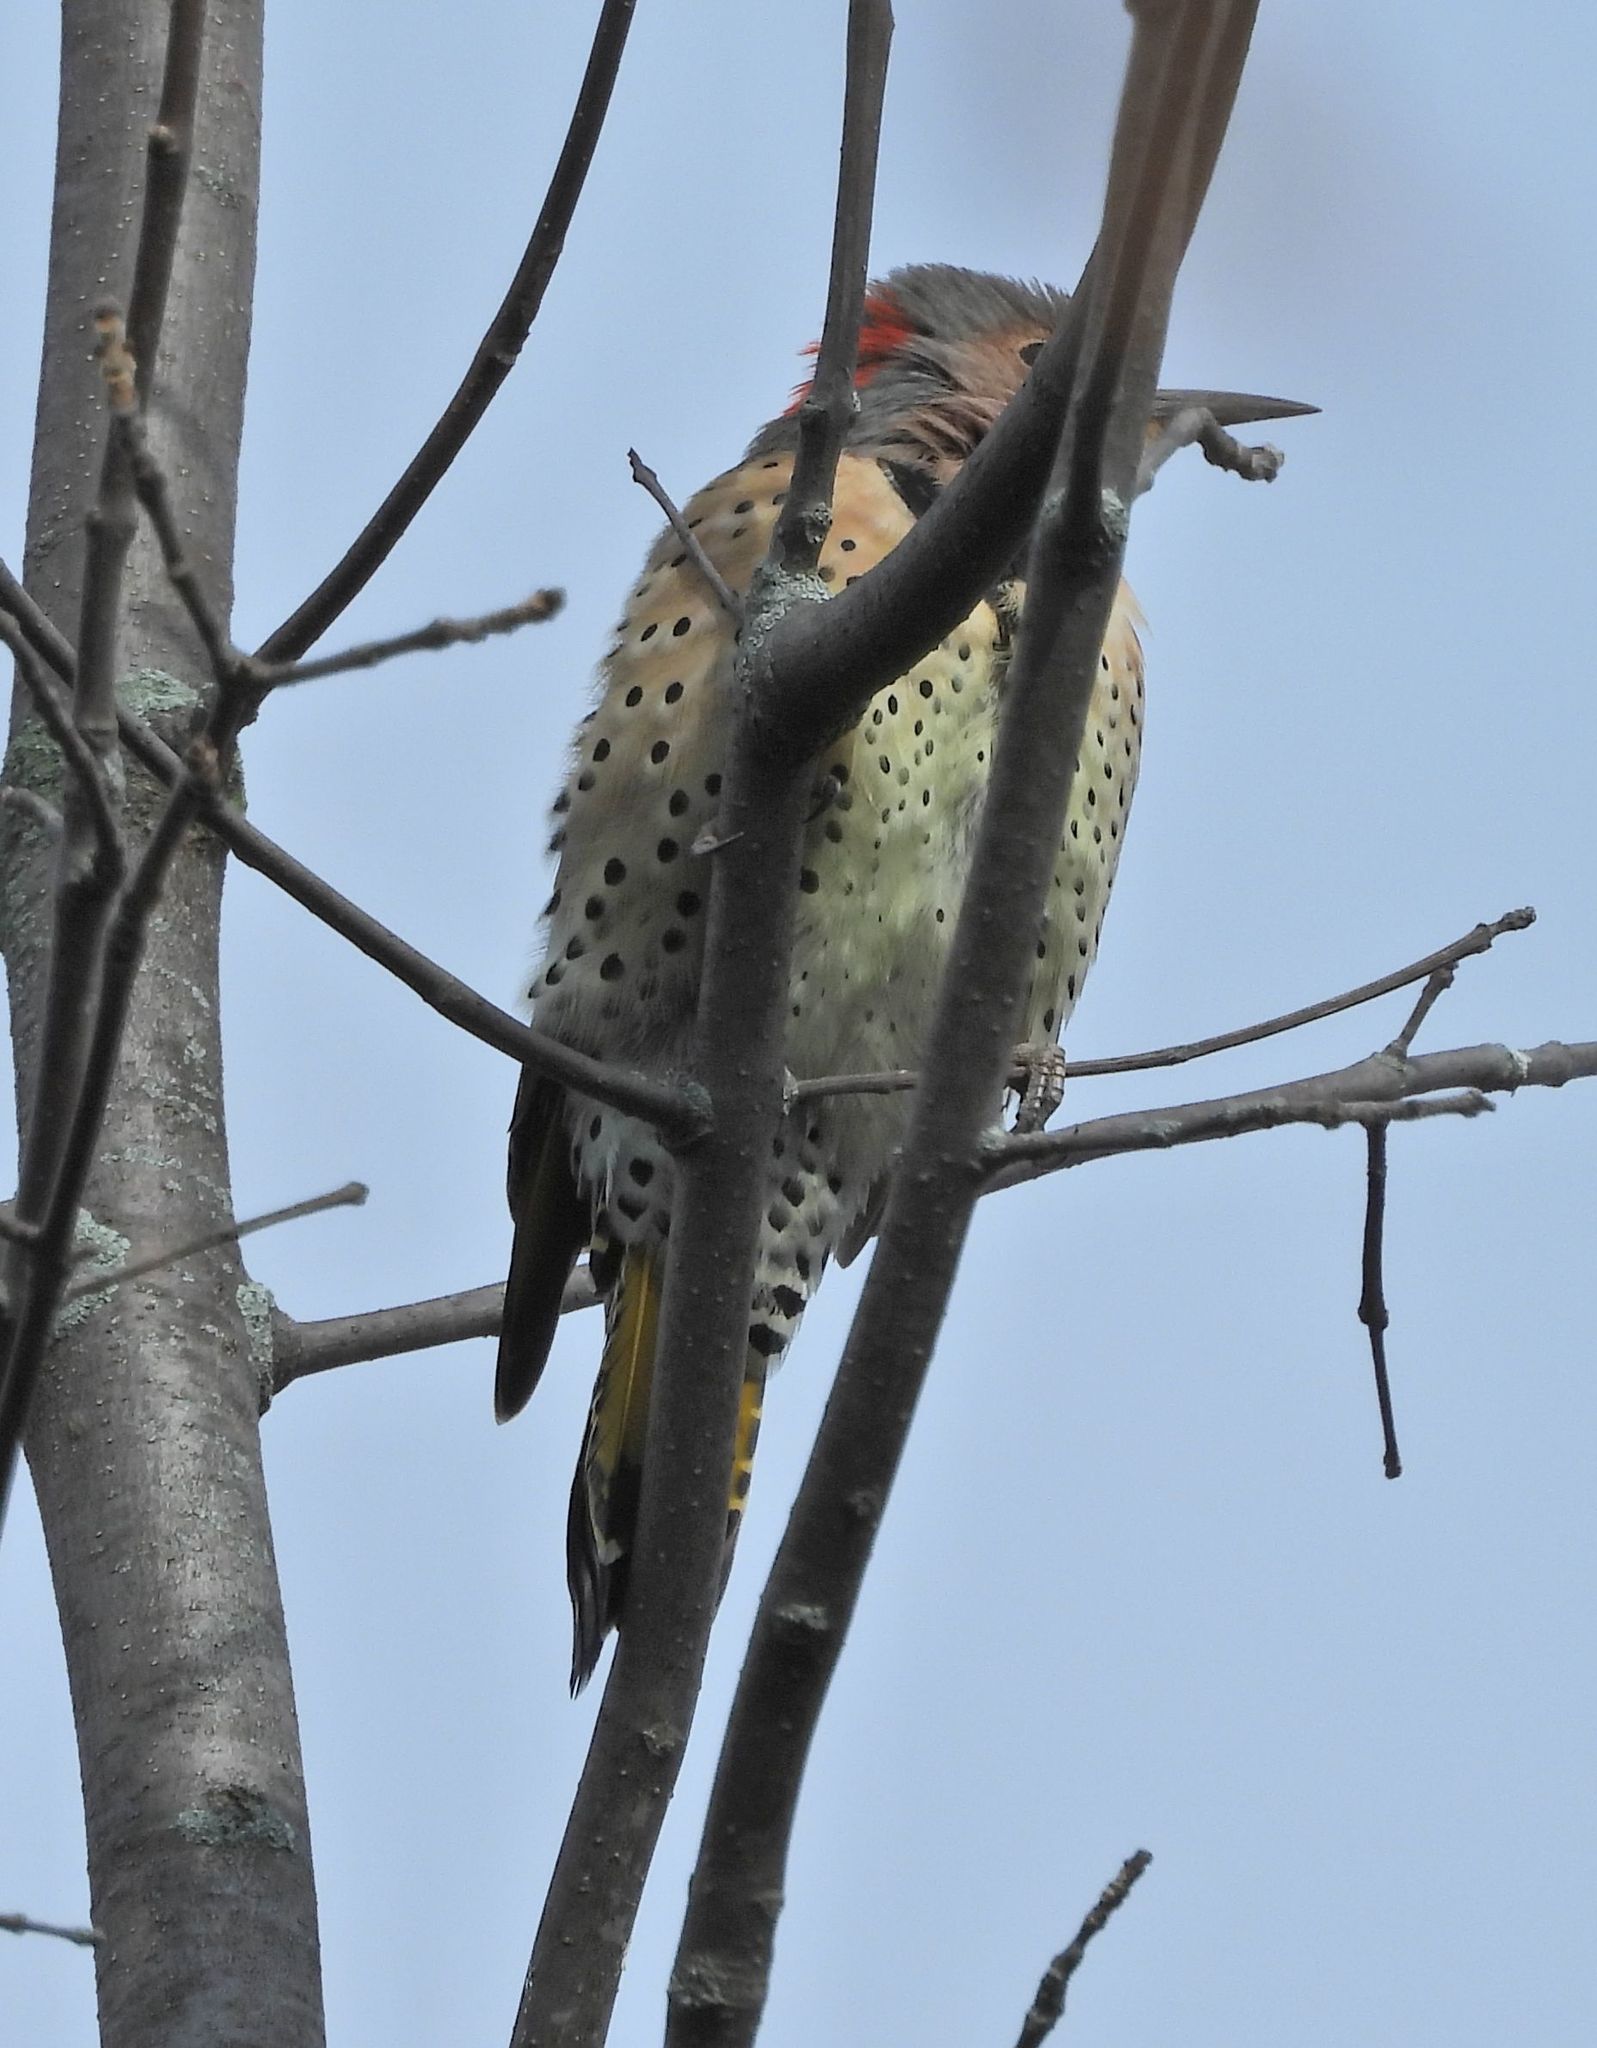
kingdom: Animalia
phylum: Chordata
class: Aves
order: Piciformes
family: Picidae
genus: Colaptes
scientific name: Colaptes auratus
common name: Northern flicker
